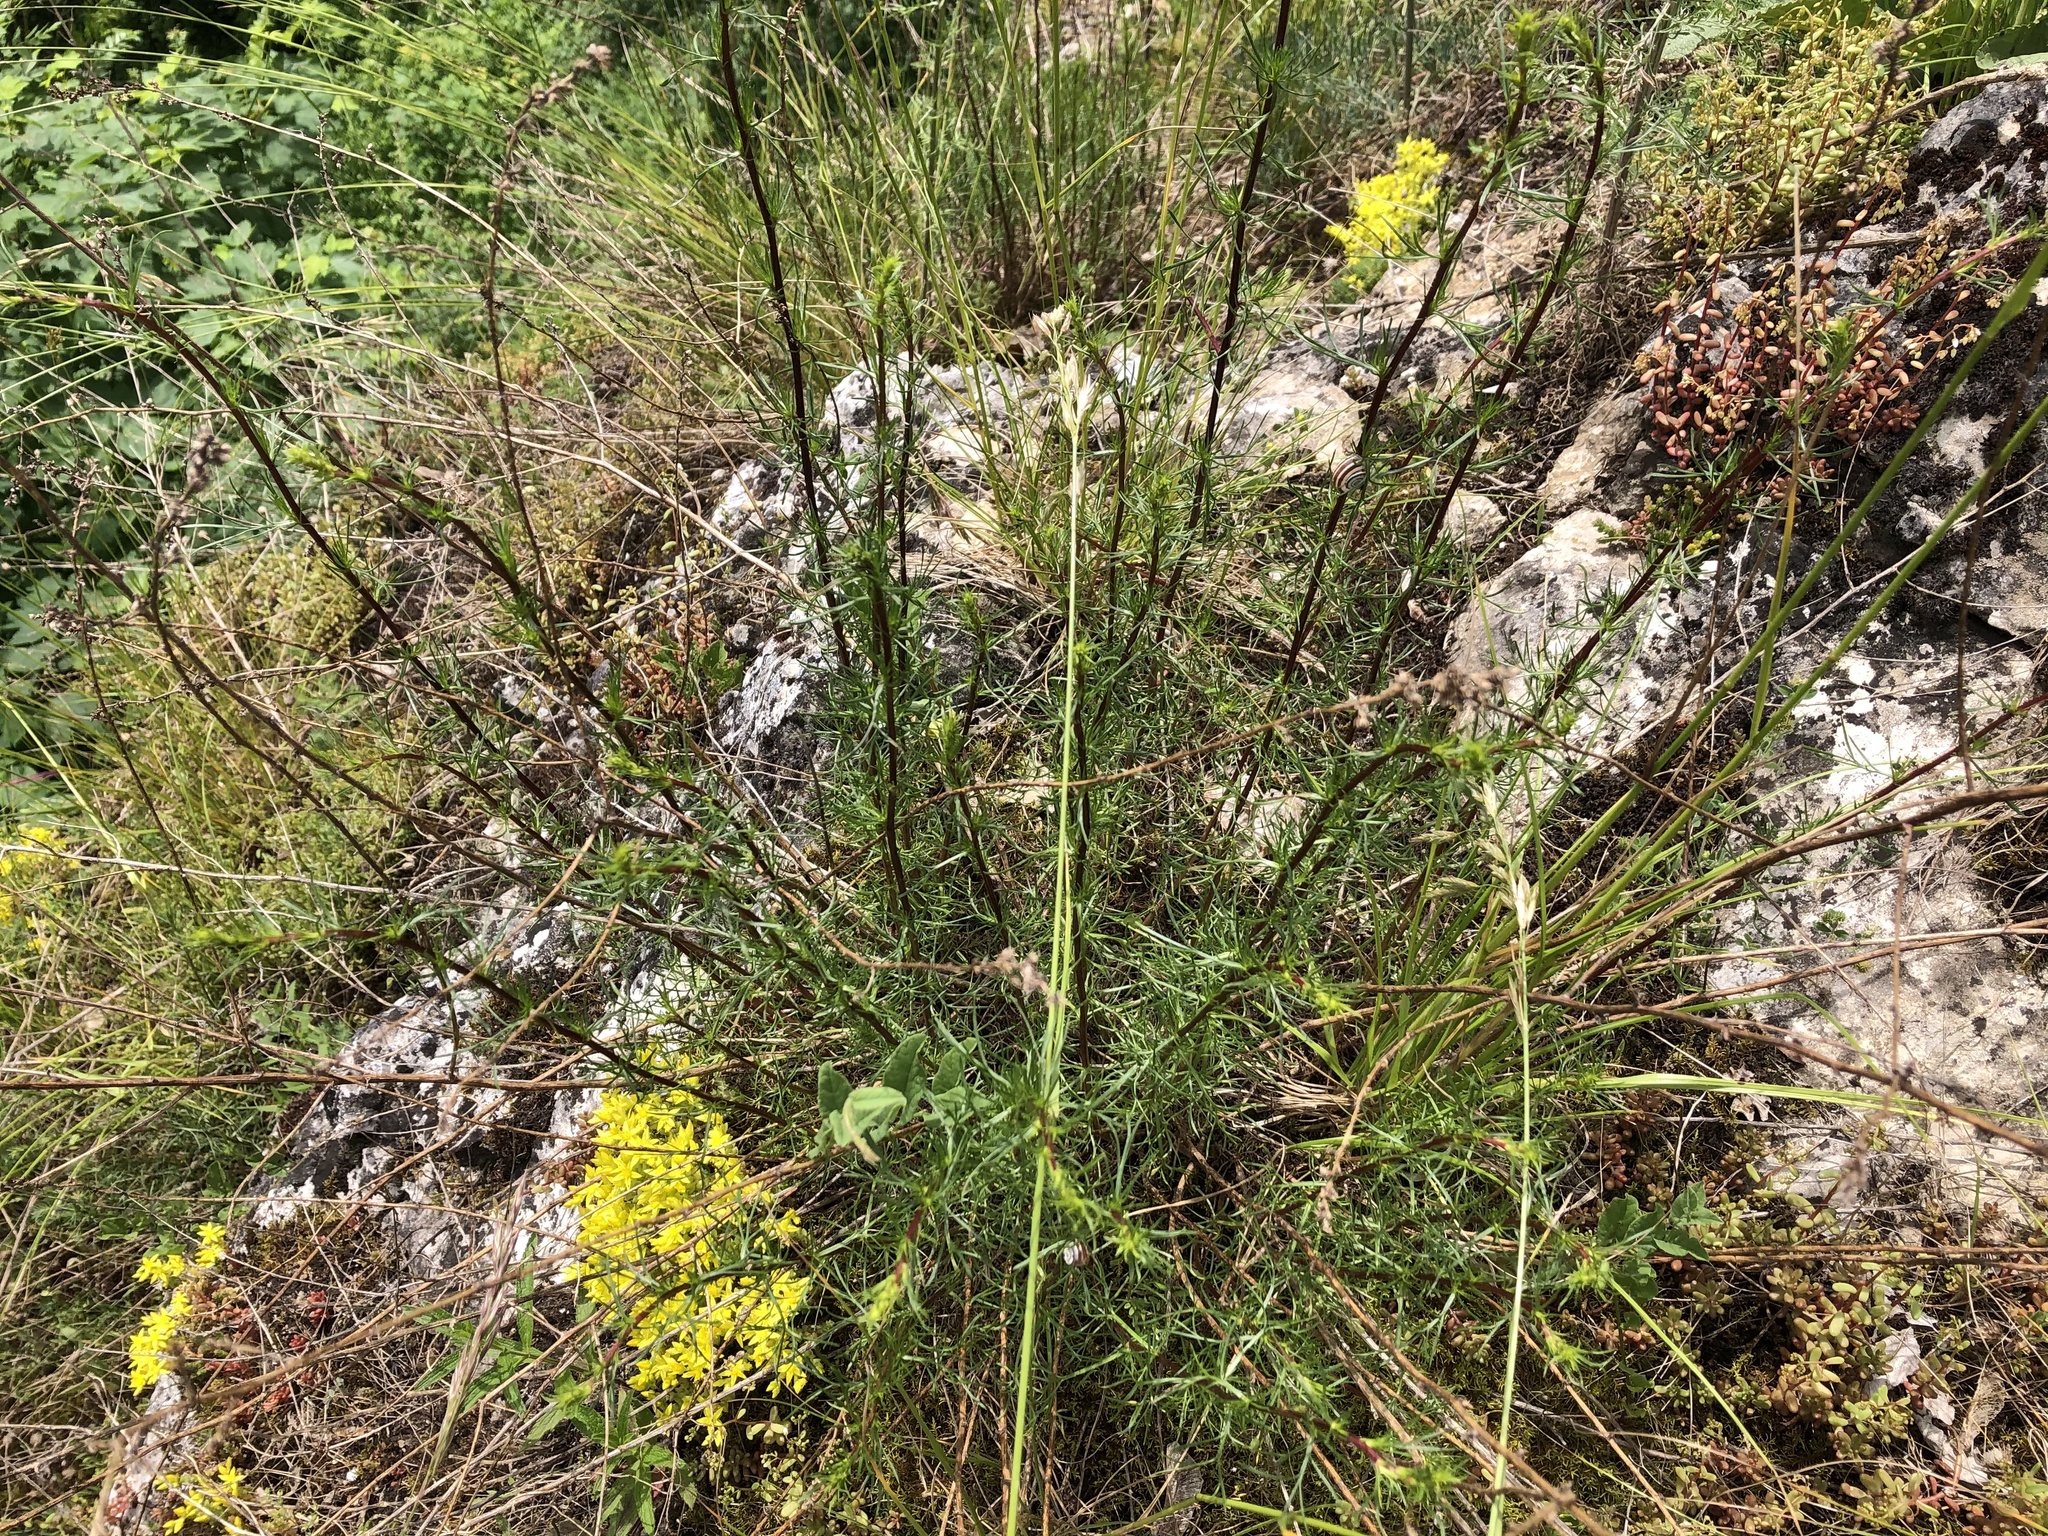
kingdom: Plantae
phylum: Tracheophyta
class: Magnoliopsida
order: Asterales
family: Asteraceae
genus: Artemisia
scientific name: Artemisia campestris
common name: Field wormwood
